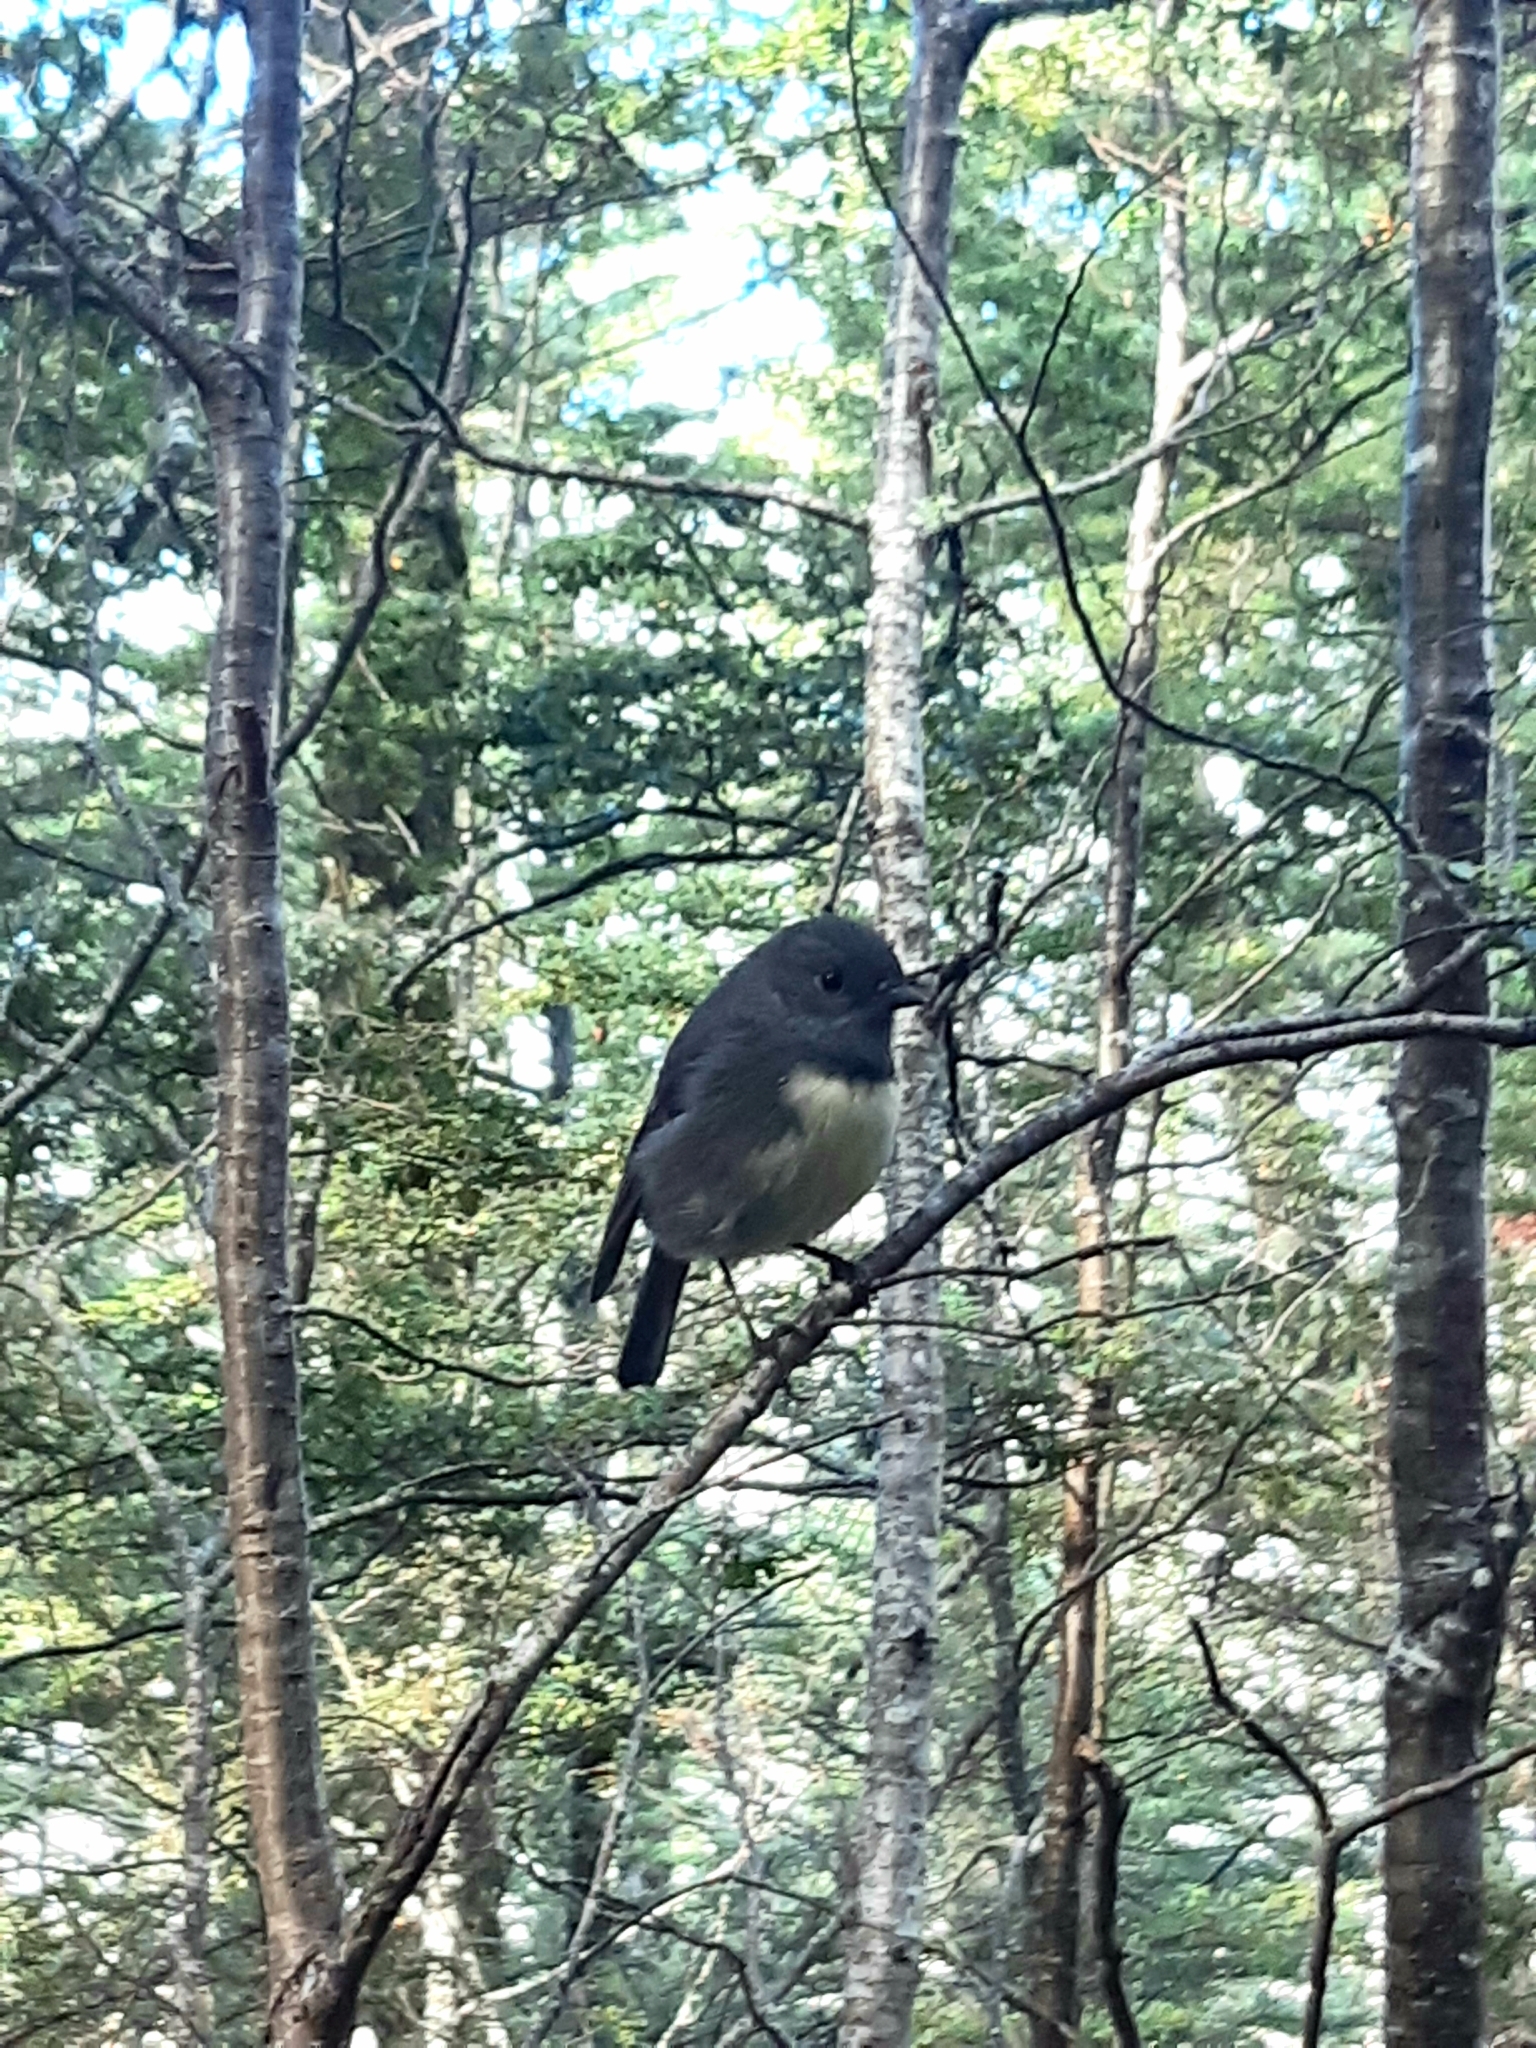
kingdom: Animalia
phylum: Chordata
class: Aves
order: Passeriformes
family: Petroicidae
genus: Petroica
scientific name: Petroica australis
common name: New zealand robin
